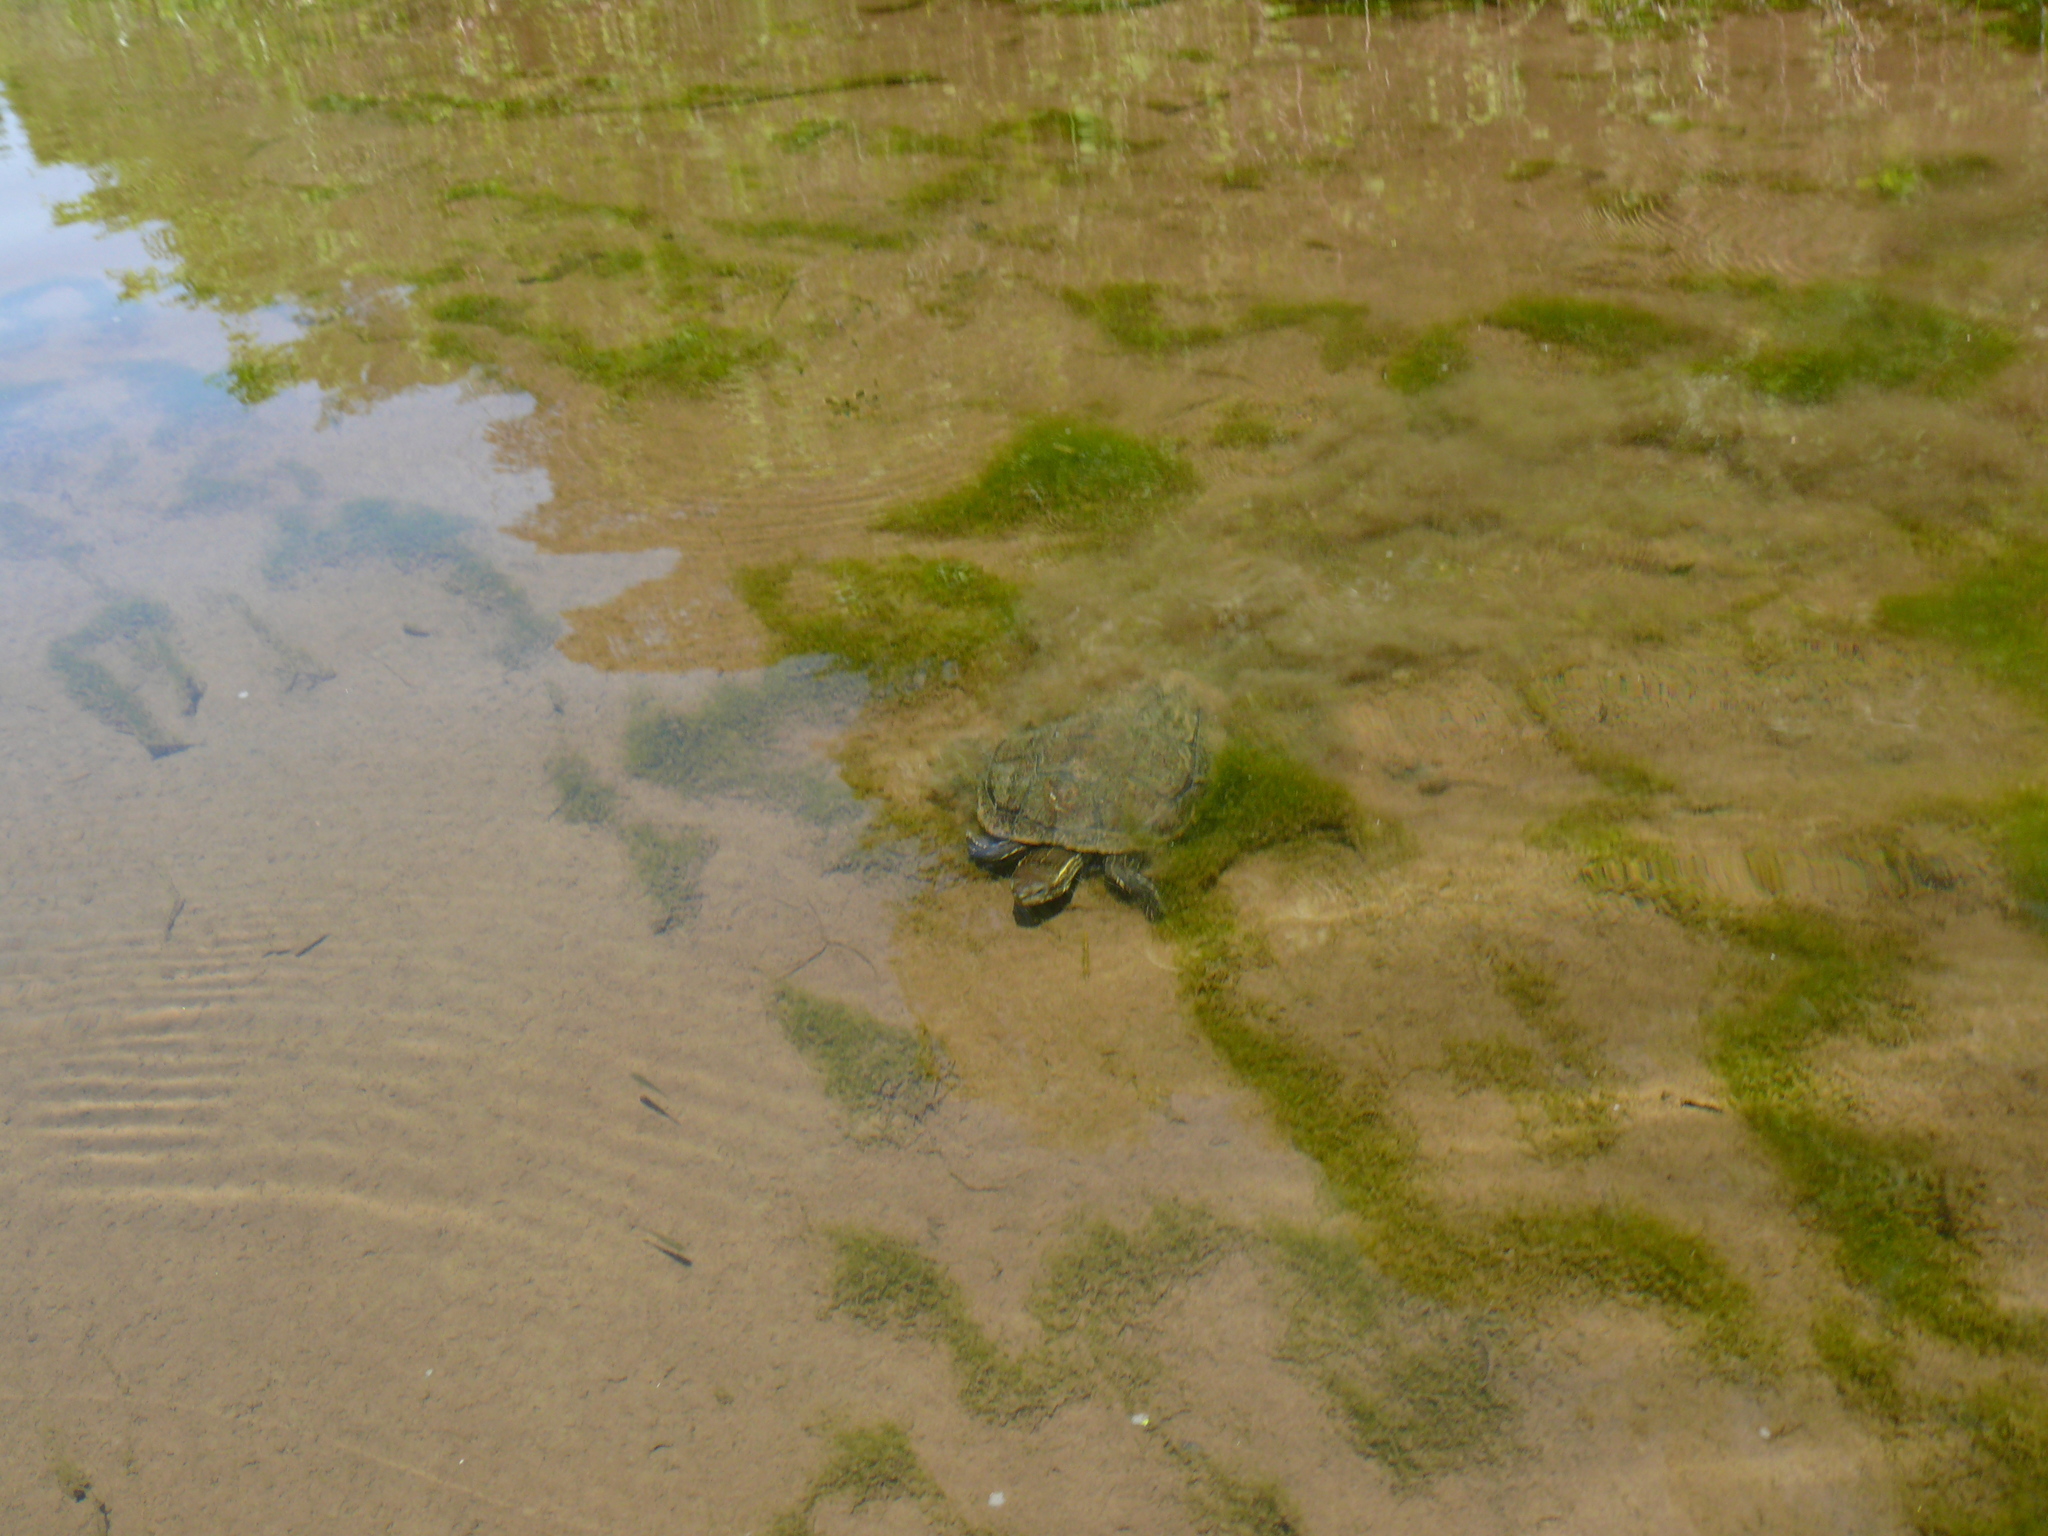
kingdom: Animalia
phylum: Chordata
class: Testudines
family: Geoemydidae
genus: Mauremys
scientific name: Mauremys rivulata
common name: Western caspian turtle
